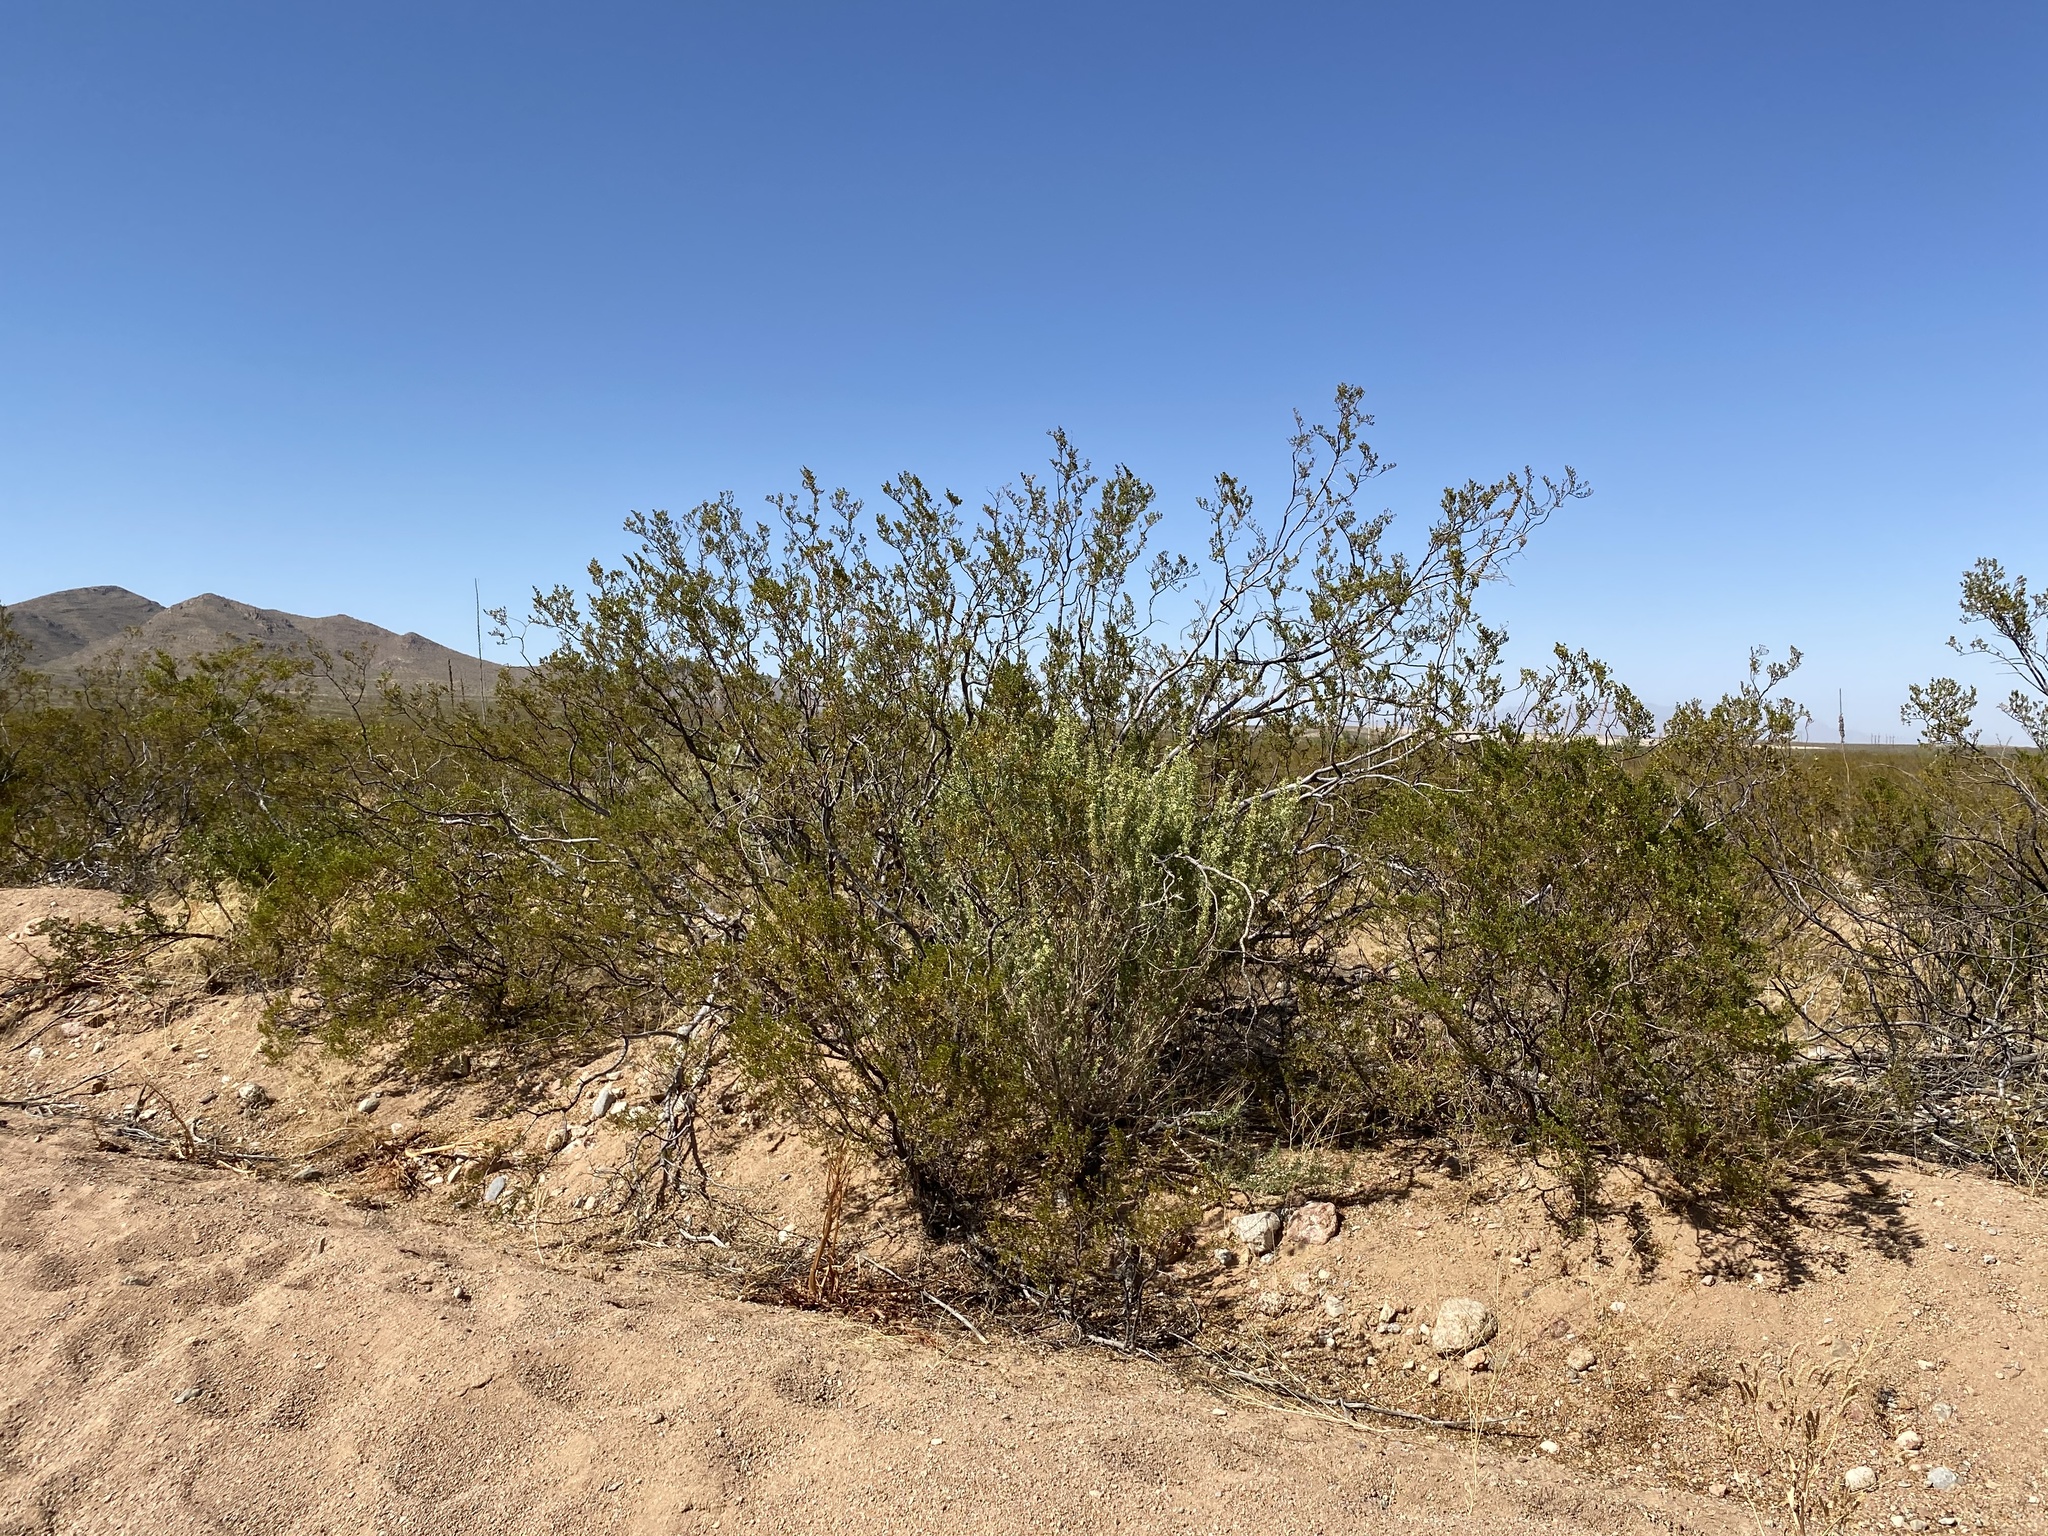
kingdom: Plantae
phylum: Tracheophyta
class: Magnoliopsida
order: Zygophyllales
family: Zygophyllaceae
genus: Larrea
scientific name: Larrea tridentata
